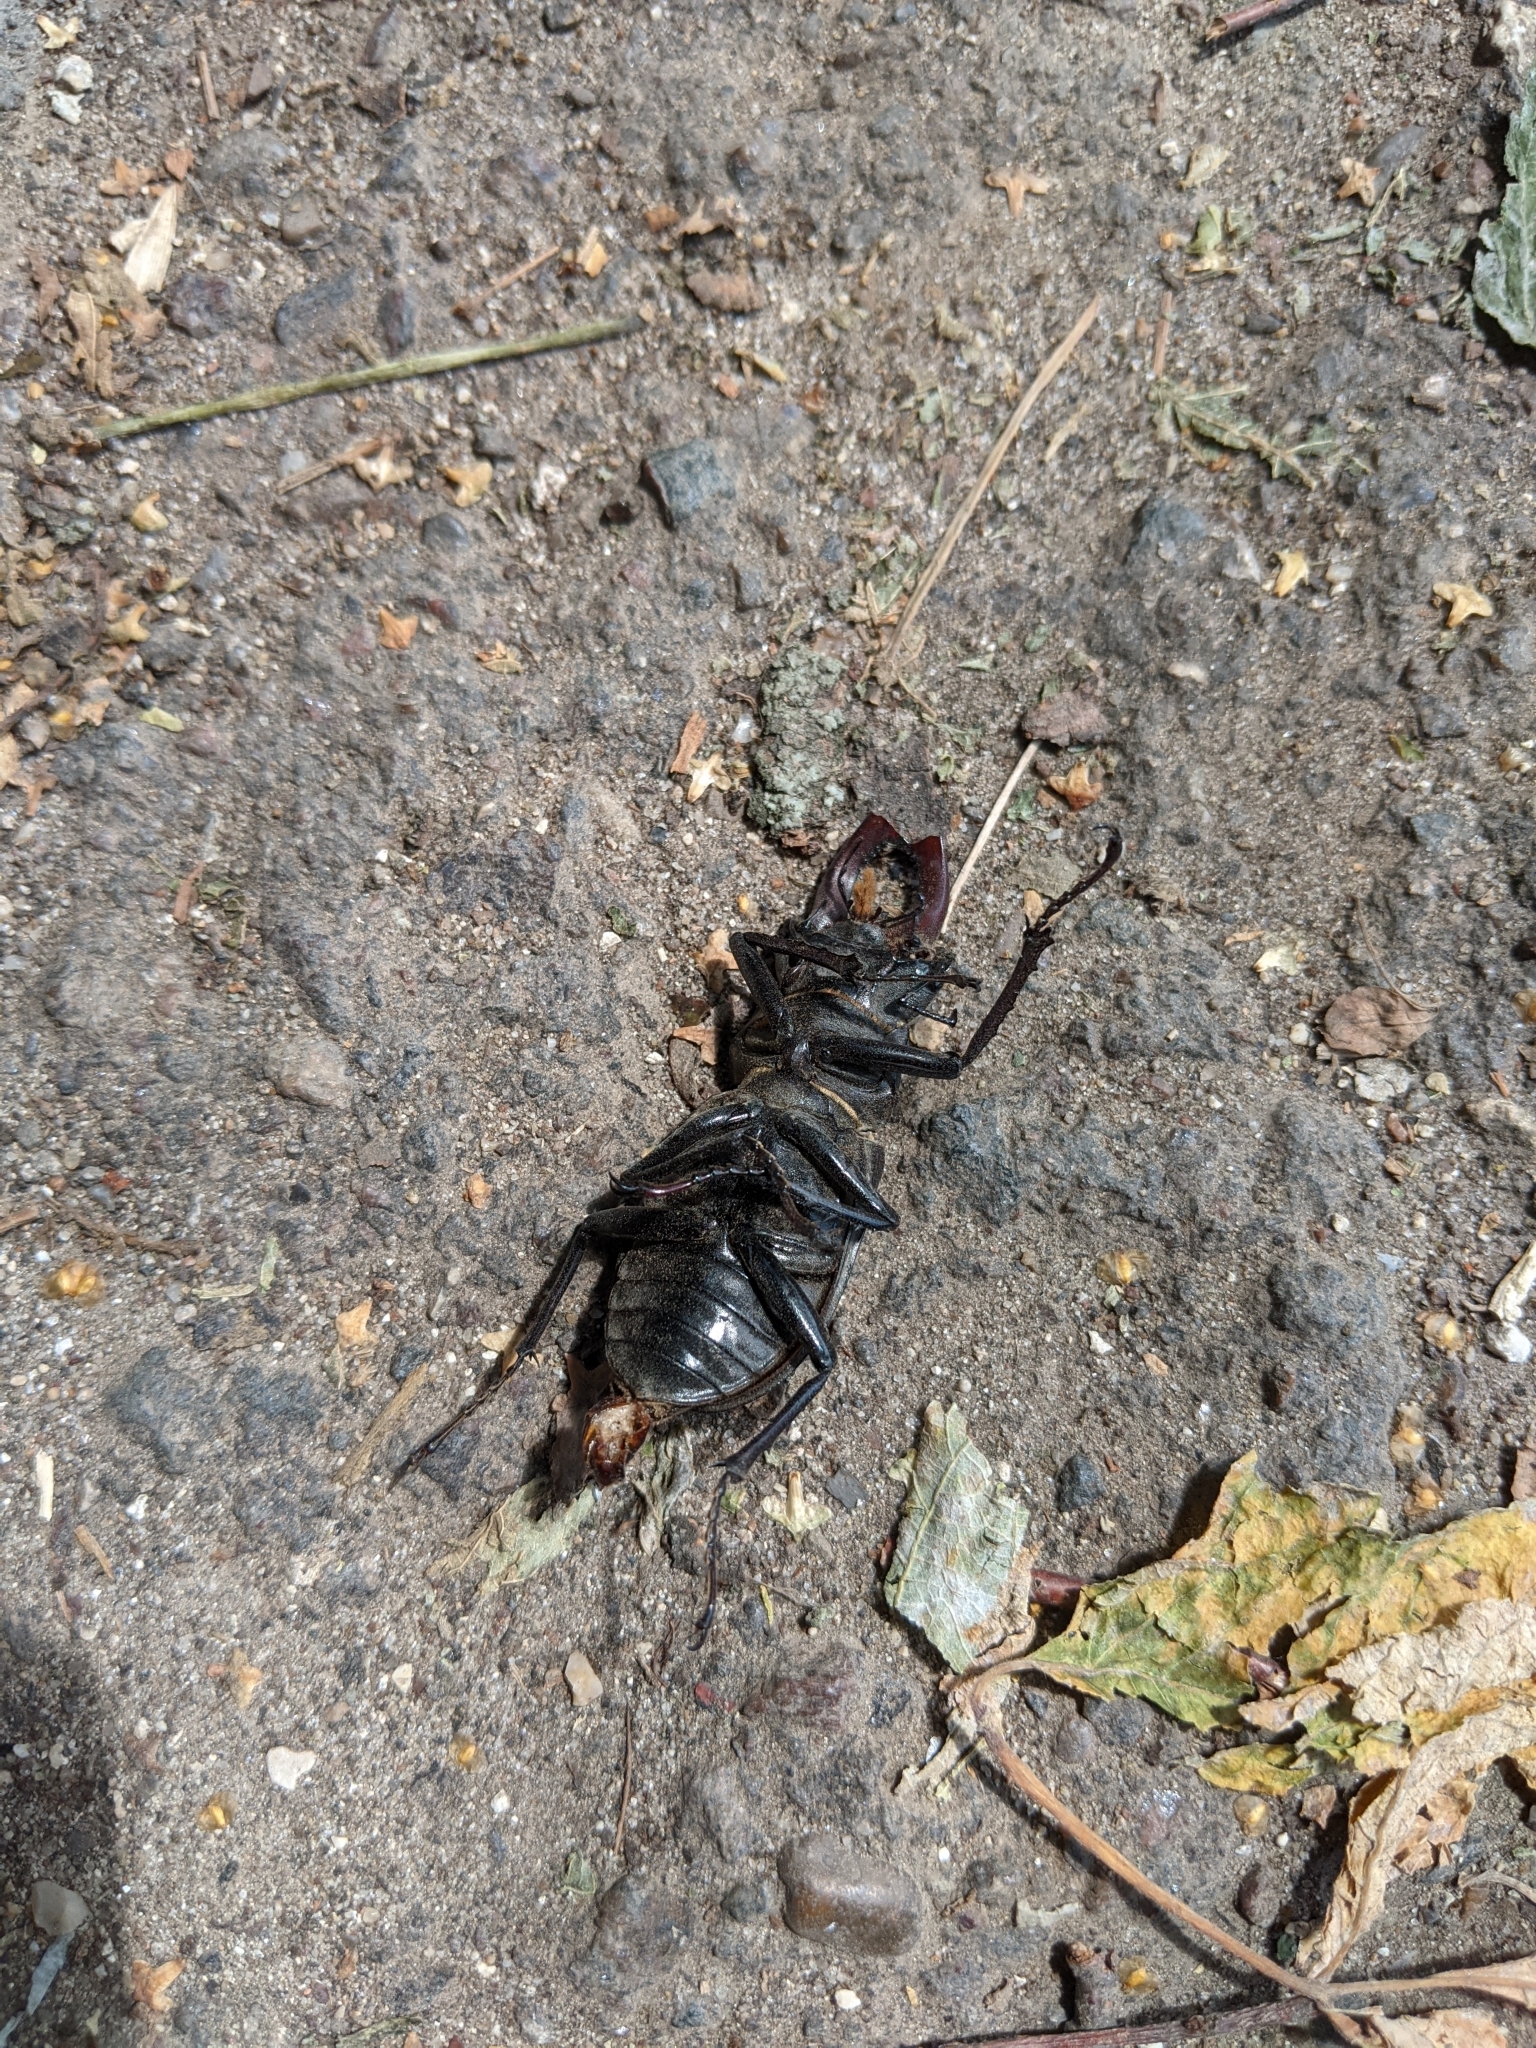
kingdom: Animalia
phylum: Arthropoda
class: Insecta
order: Coleoptera
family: Lucanidae
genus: Lucanus
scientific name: Lucanus cervus
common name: Stag beetle
